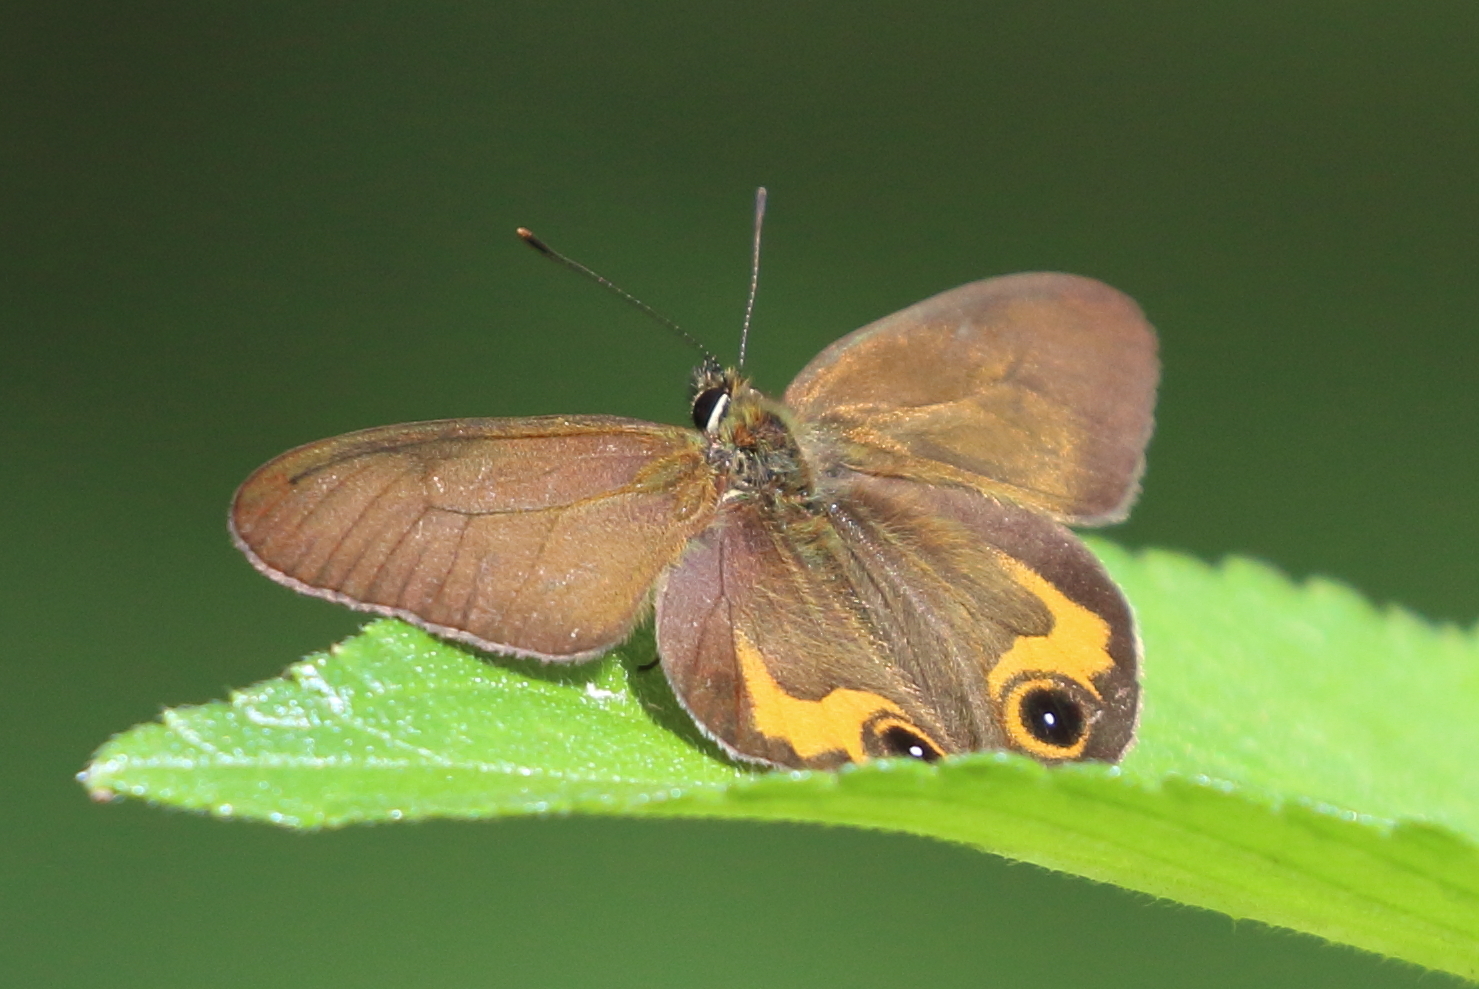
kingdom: Animalia
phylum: Arthropoda
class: Insecta
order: Lepidoptera
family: Nymphalidae
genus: Hypocysta
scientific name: Hypocysta metirius
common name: Brown ringlet
